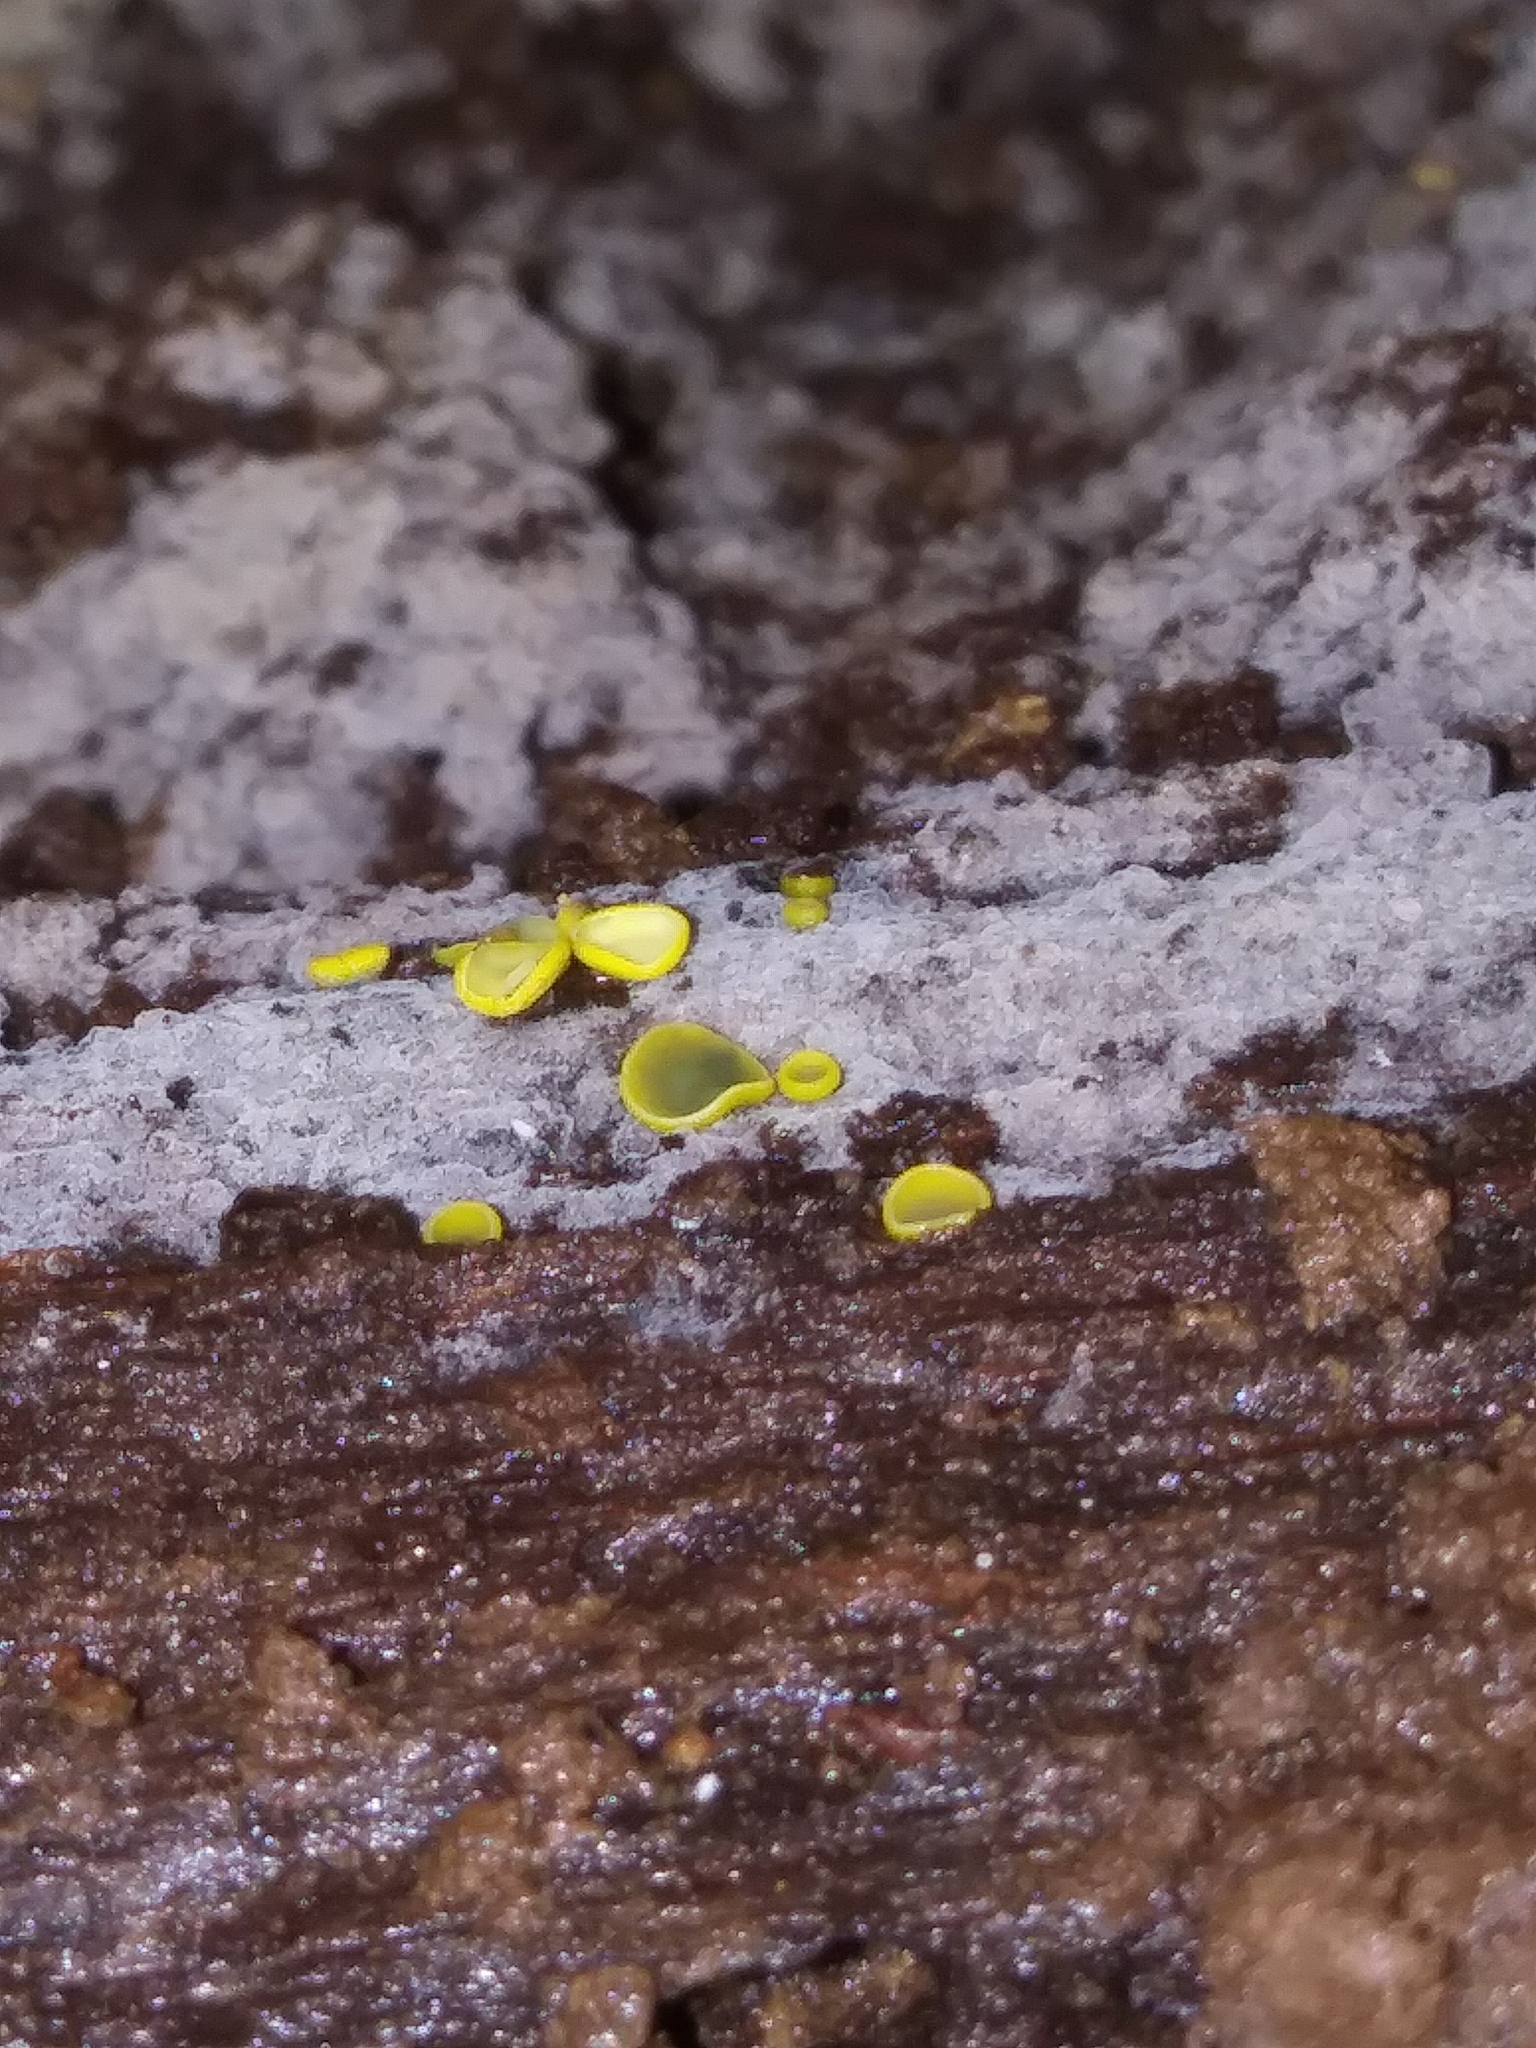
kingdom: Fungi
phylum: Ascomycota
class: Leotiomycetes
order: Helotiales
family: Chlorospleniaceae
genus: Chlorosplenium
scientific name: Chlorosplenium chlora
